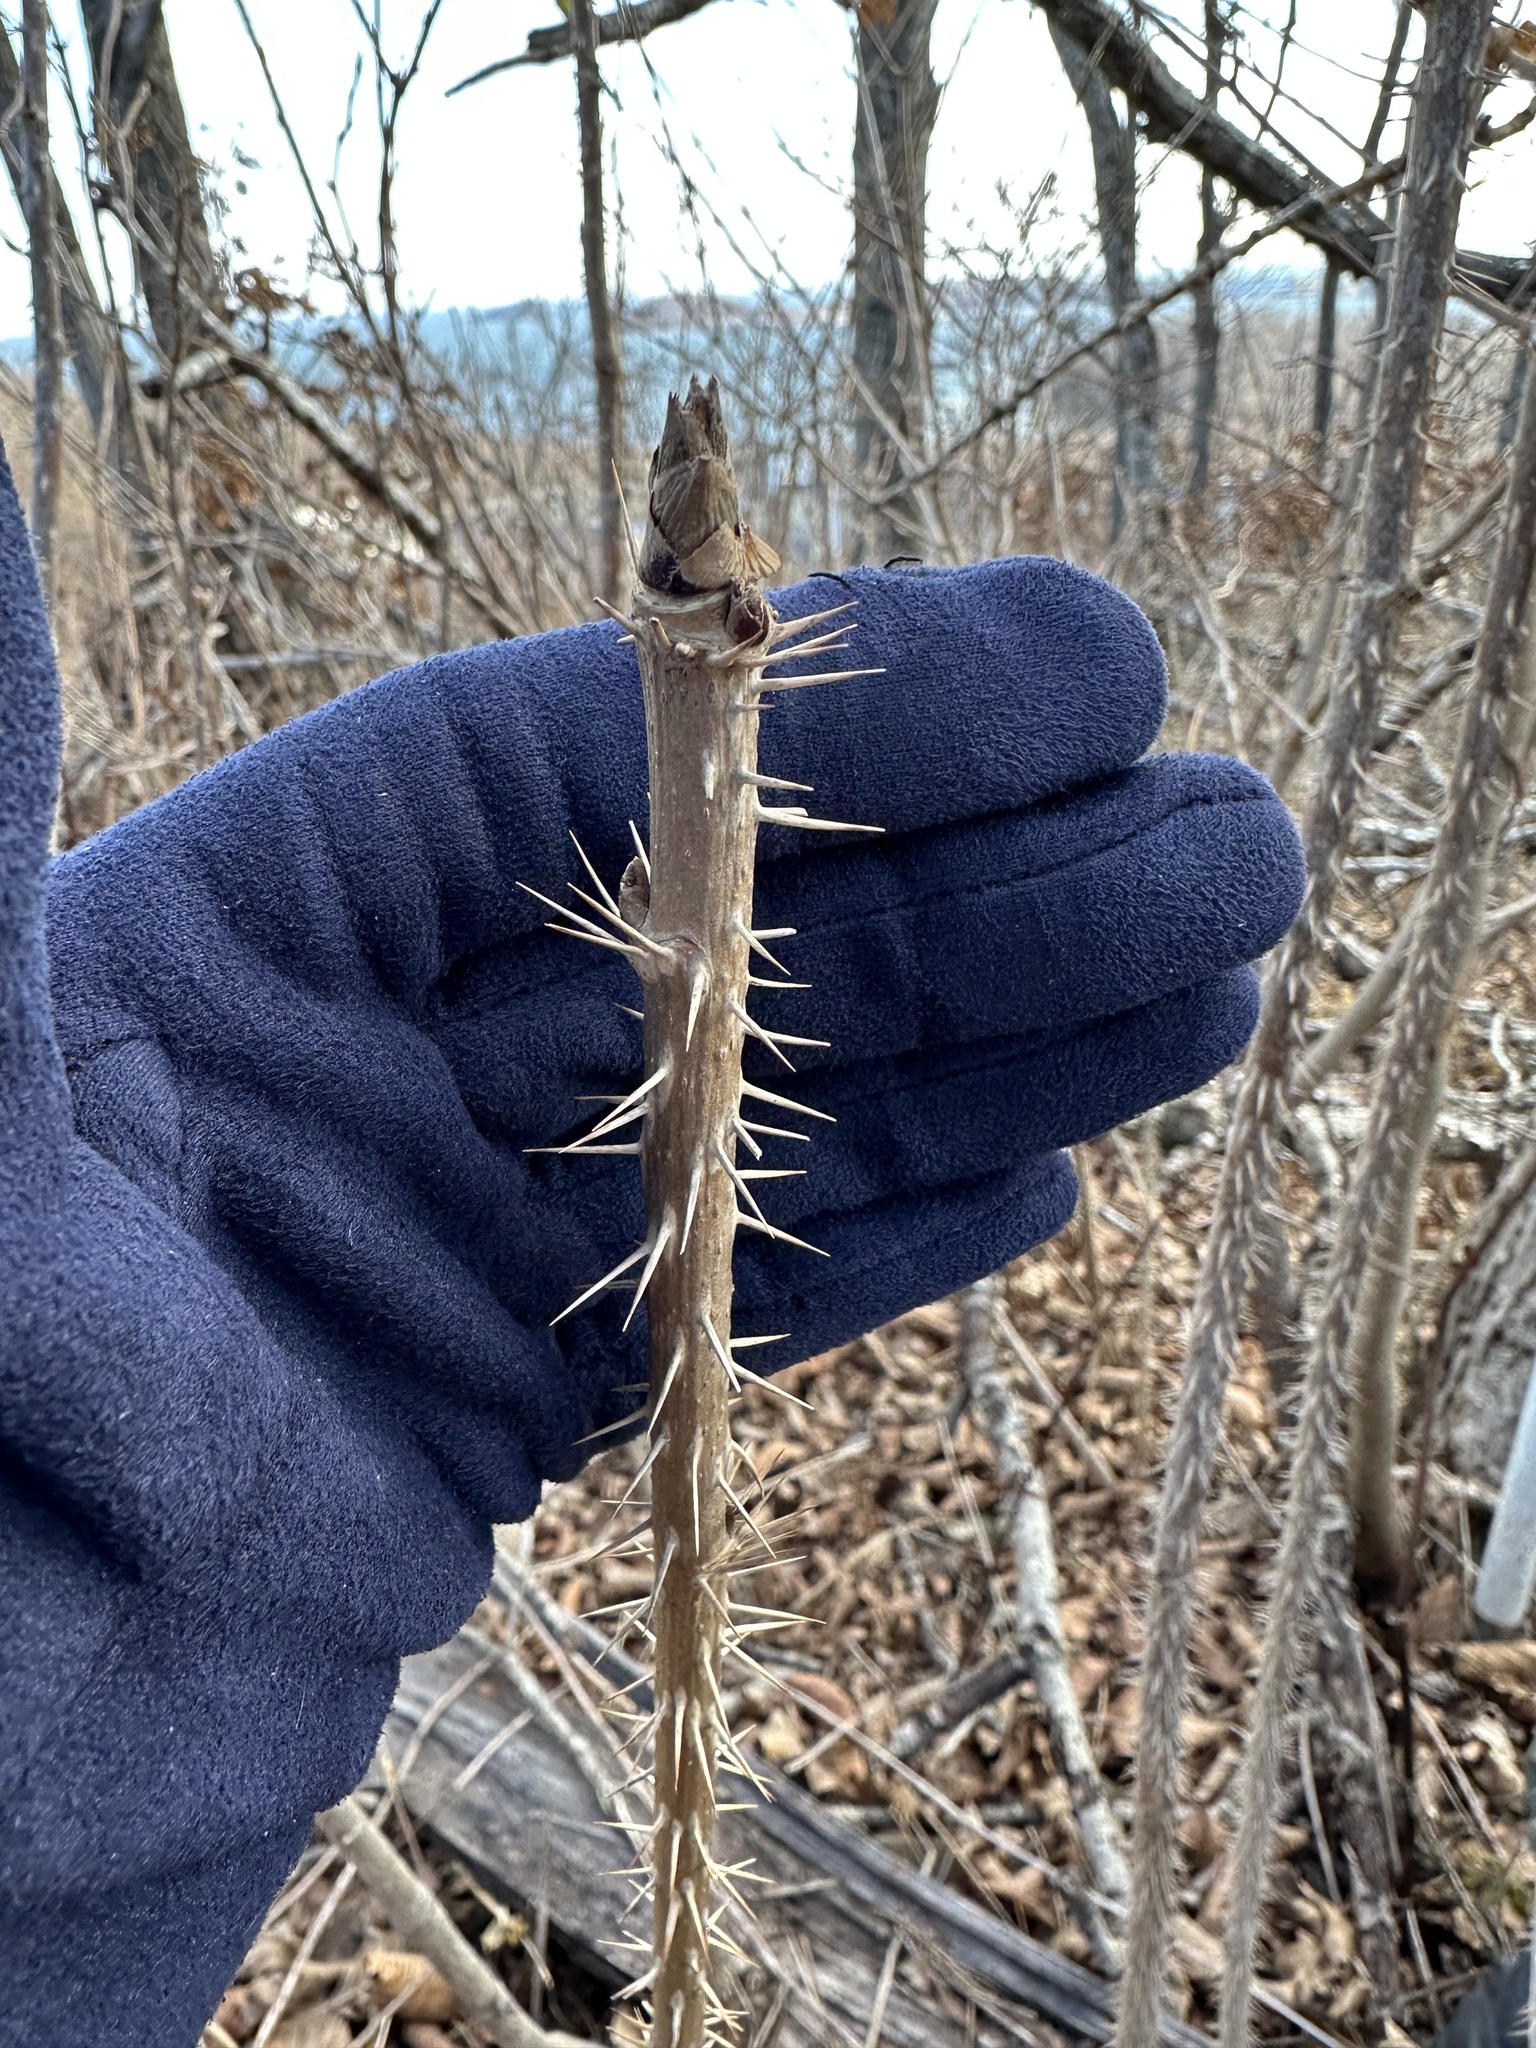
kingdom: Plantae
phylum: Tracheophyta
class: Magnoliopsida
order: Apiales
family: Araliaceae
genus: Eleutherococcus
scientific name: Eleutherococcus senticosus
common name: Siberian-ginseng
